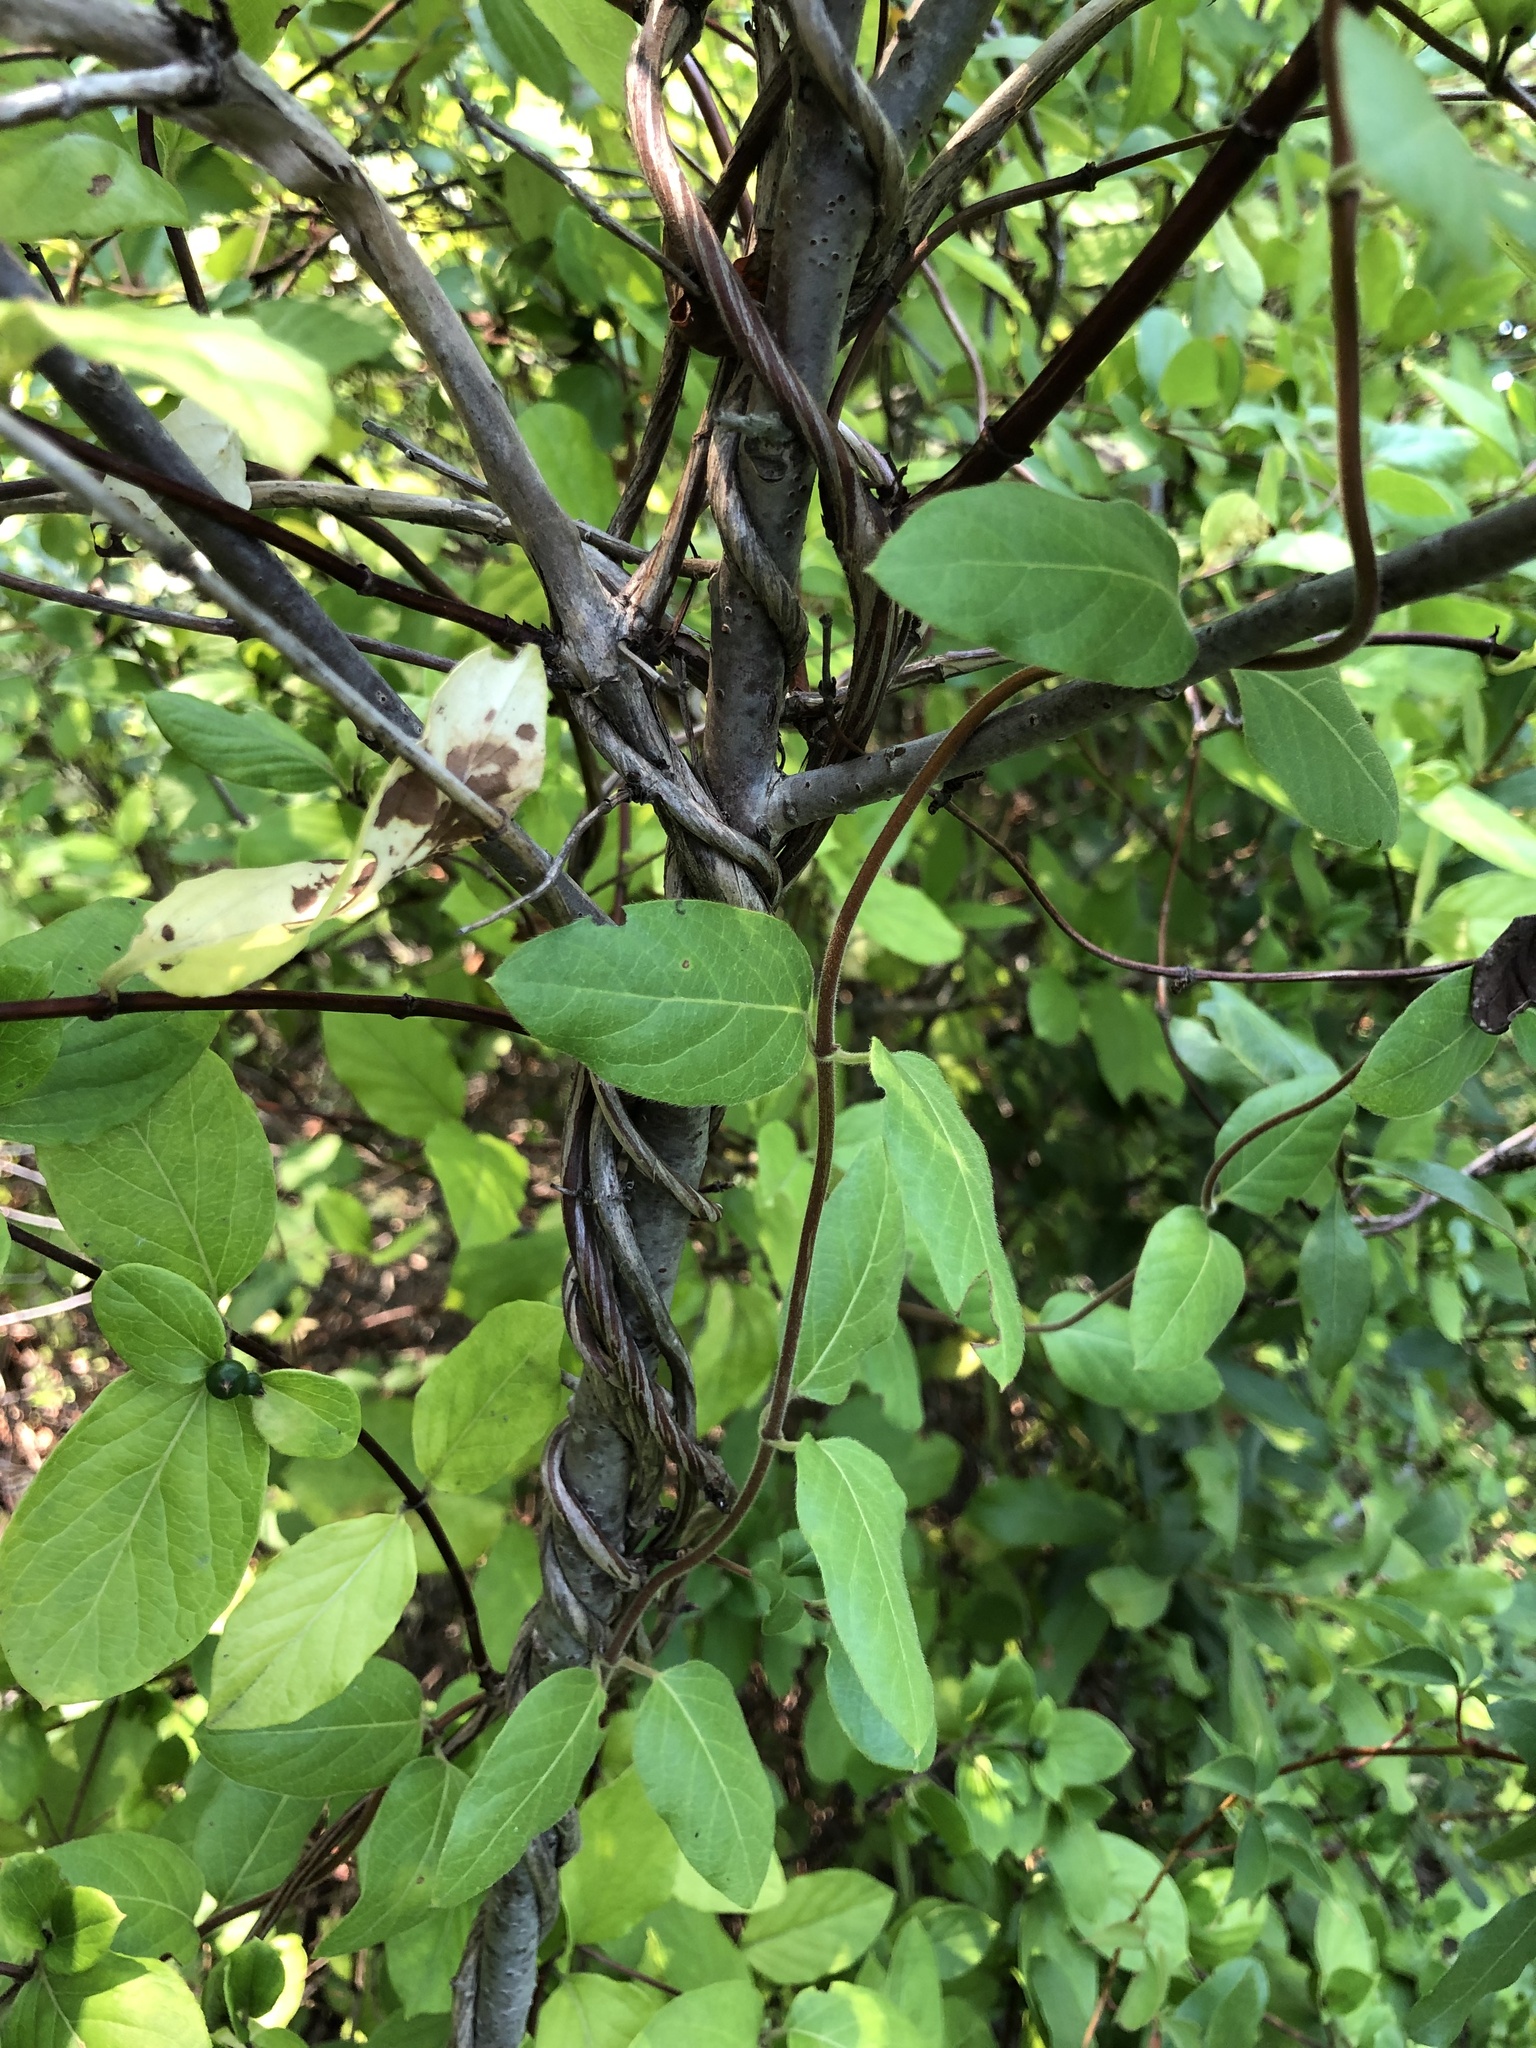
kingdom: Plantae
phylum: Tracheophyta
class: Magnoliopsida
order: Dipsacales
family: Caprifoliaceae
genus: Lonicera
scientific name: Lonicera japonica
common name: Japanese honeysuckle
